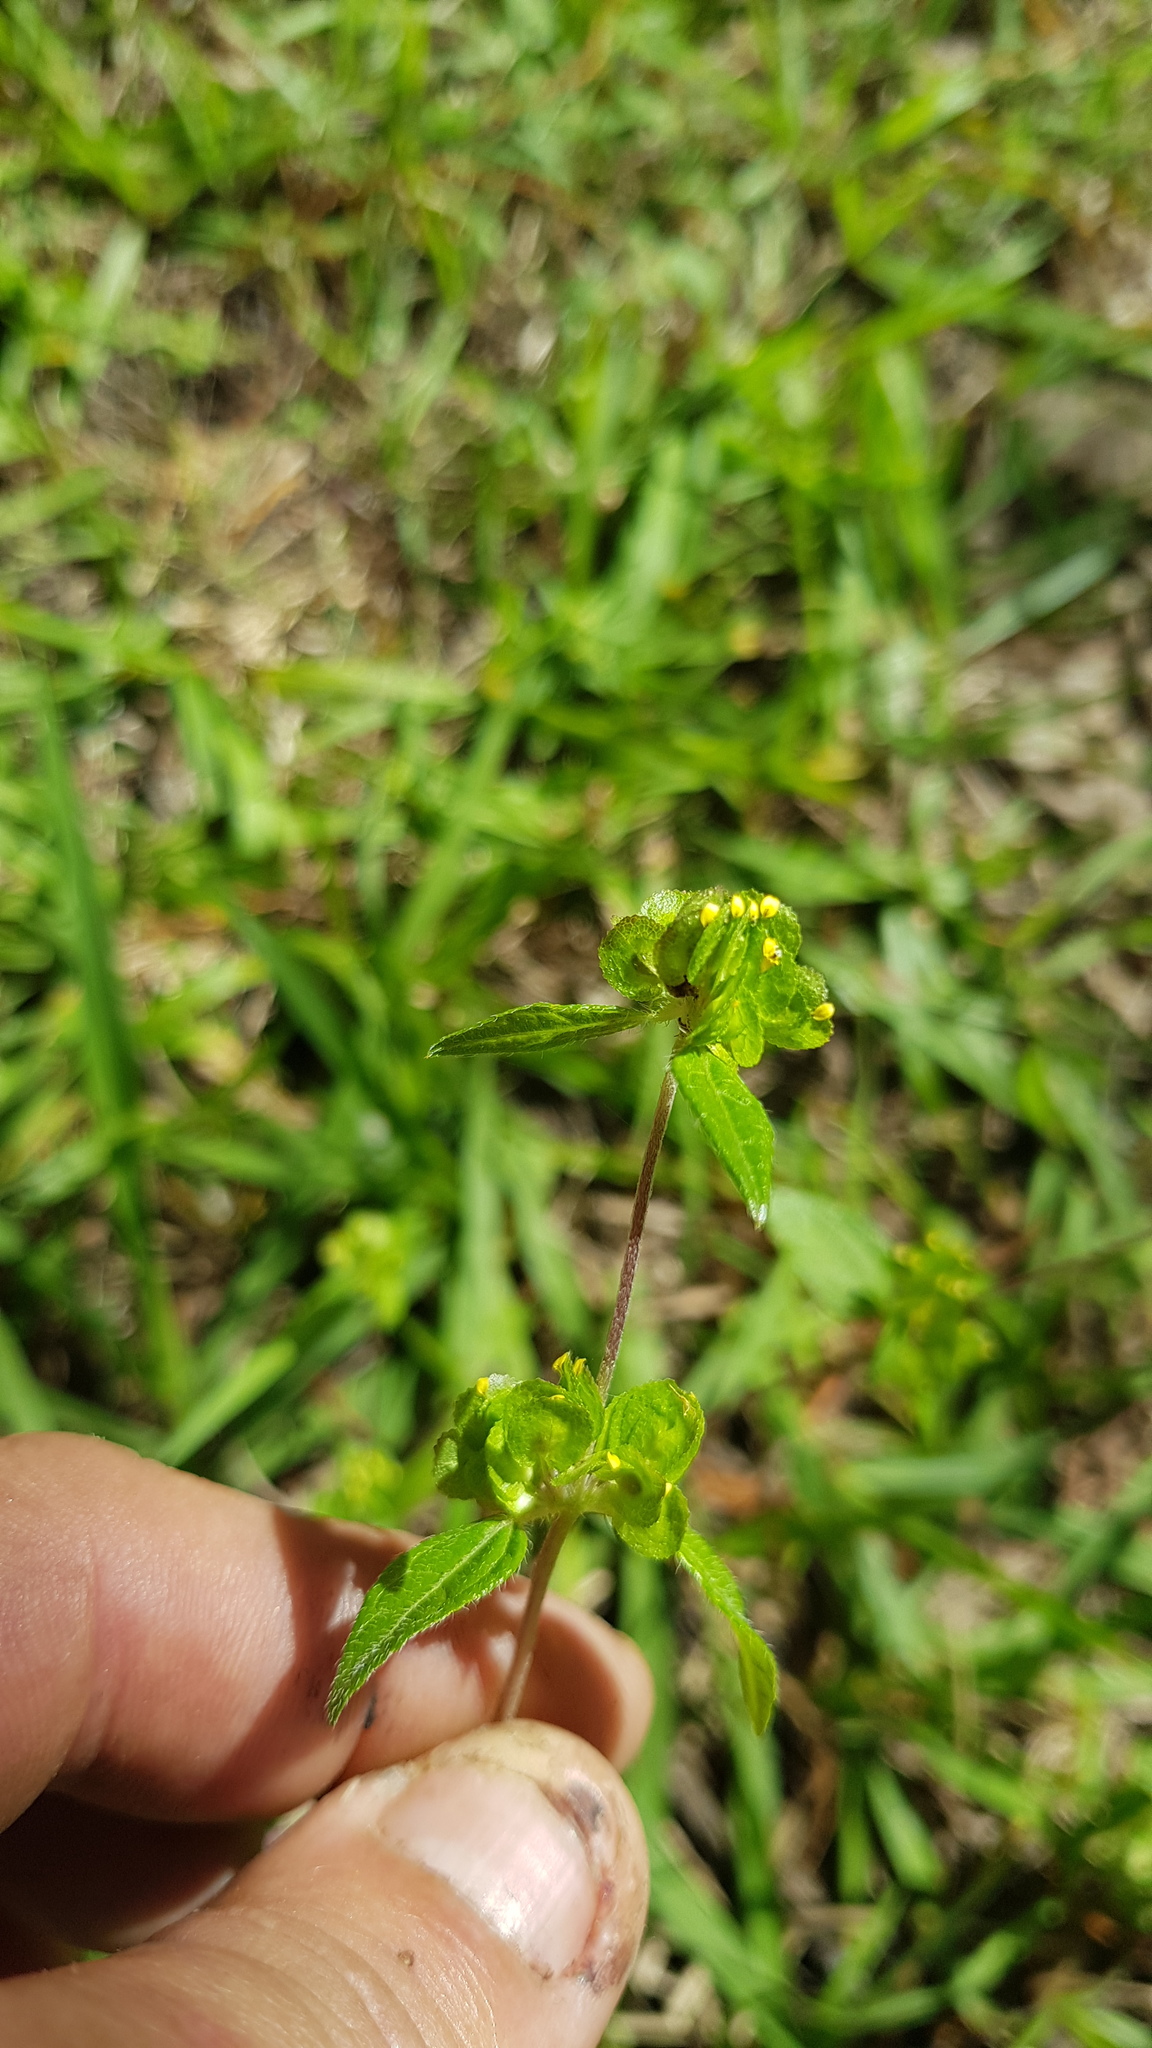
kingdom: Plantae
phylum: Tracheophyta
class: Magnoliopsida
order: Asterales
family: Asteraceae
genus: Delilia
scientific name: Delilia biflora
